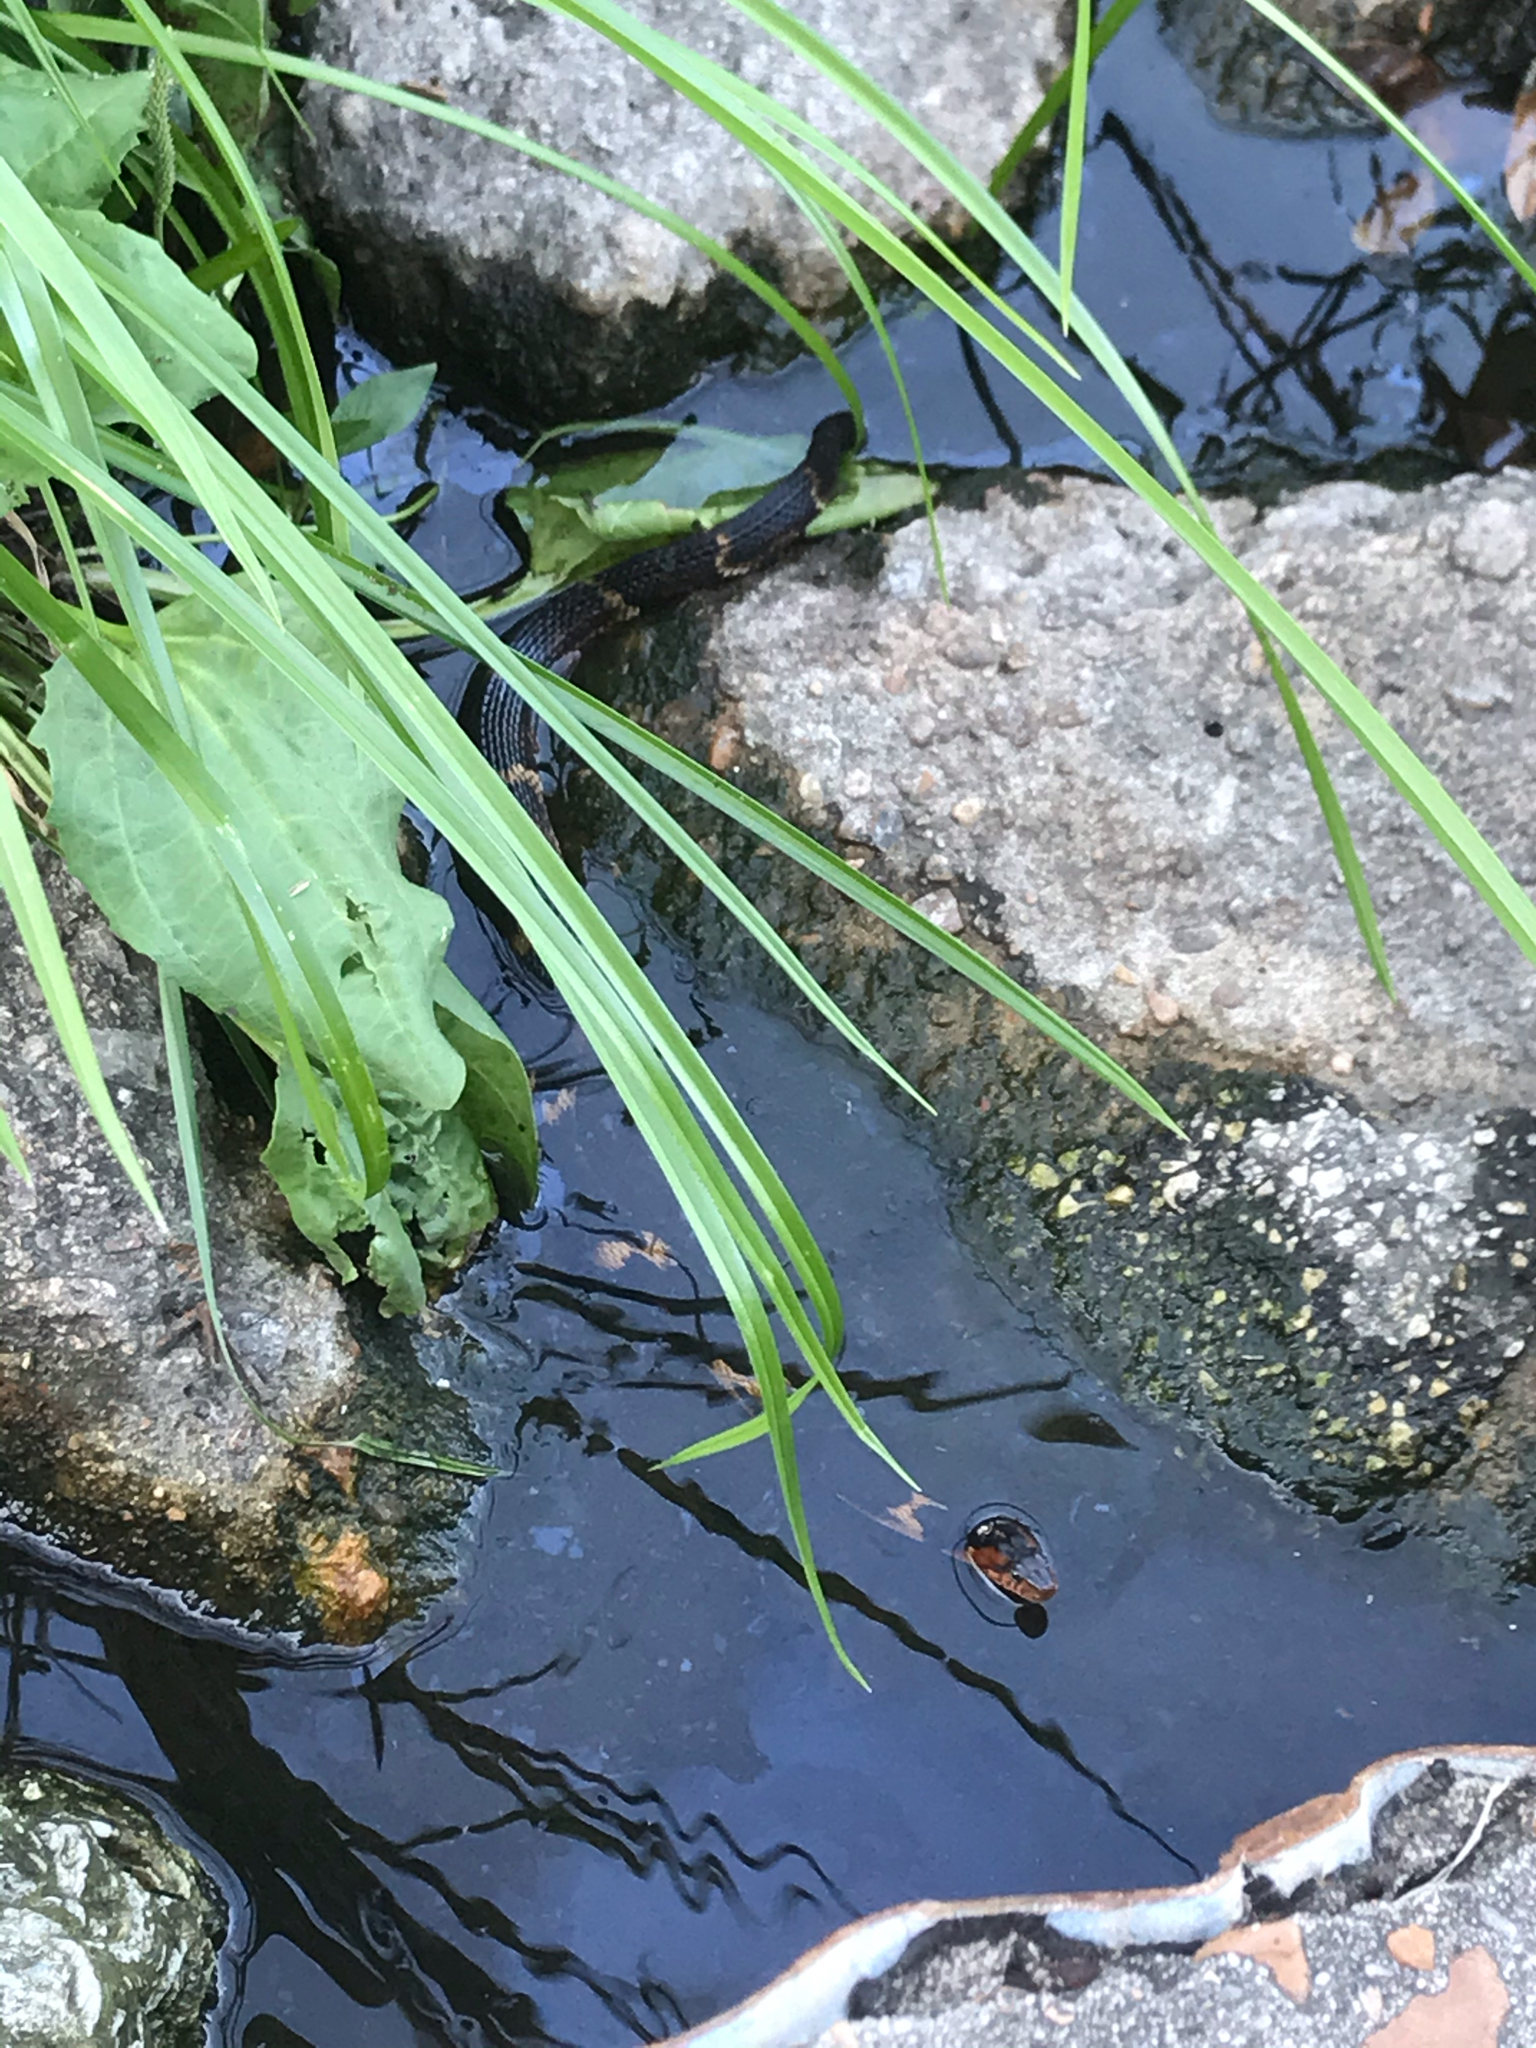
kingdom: Animalia
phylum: Chordata
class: Squamata
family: Colubridae
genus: Nerodia
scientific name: Nerodia fasciata
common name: Southern water snake
